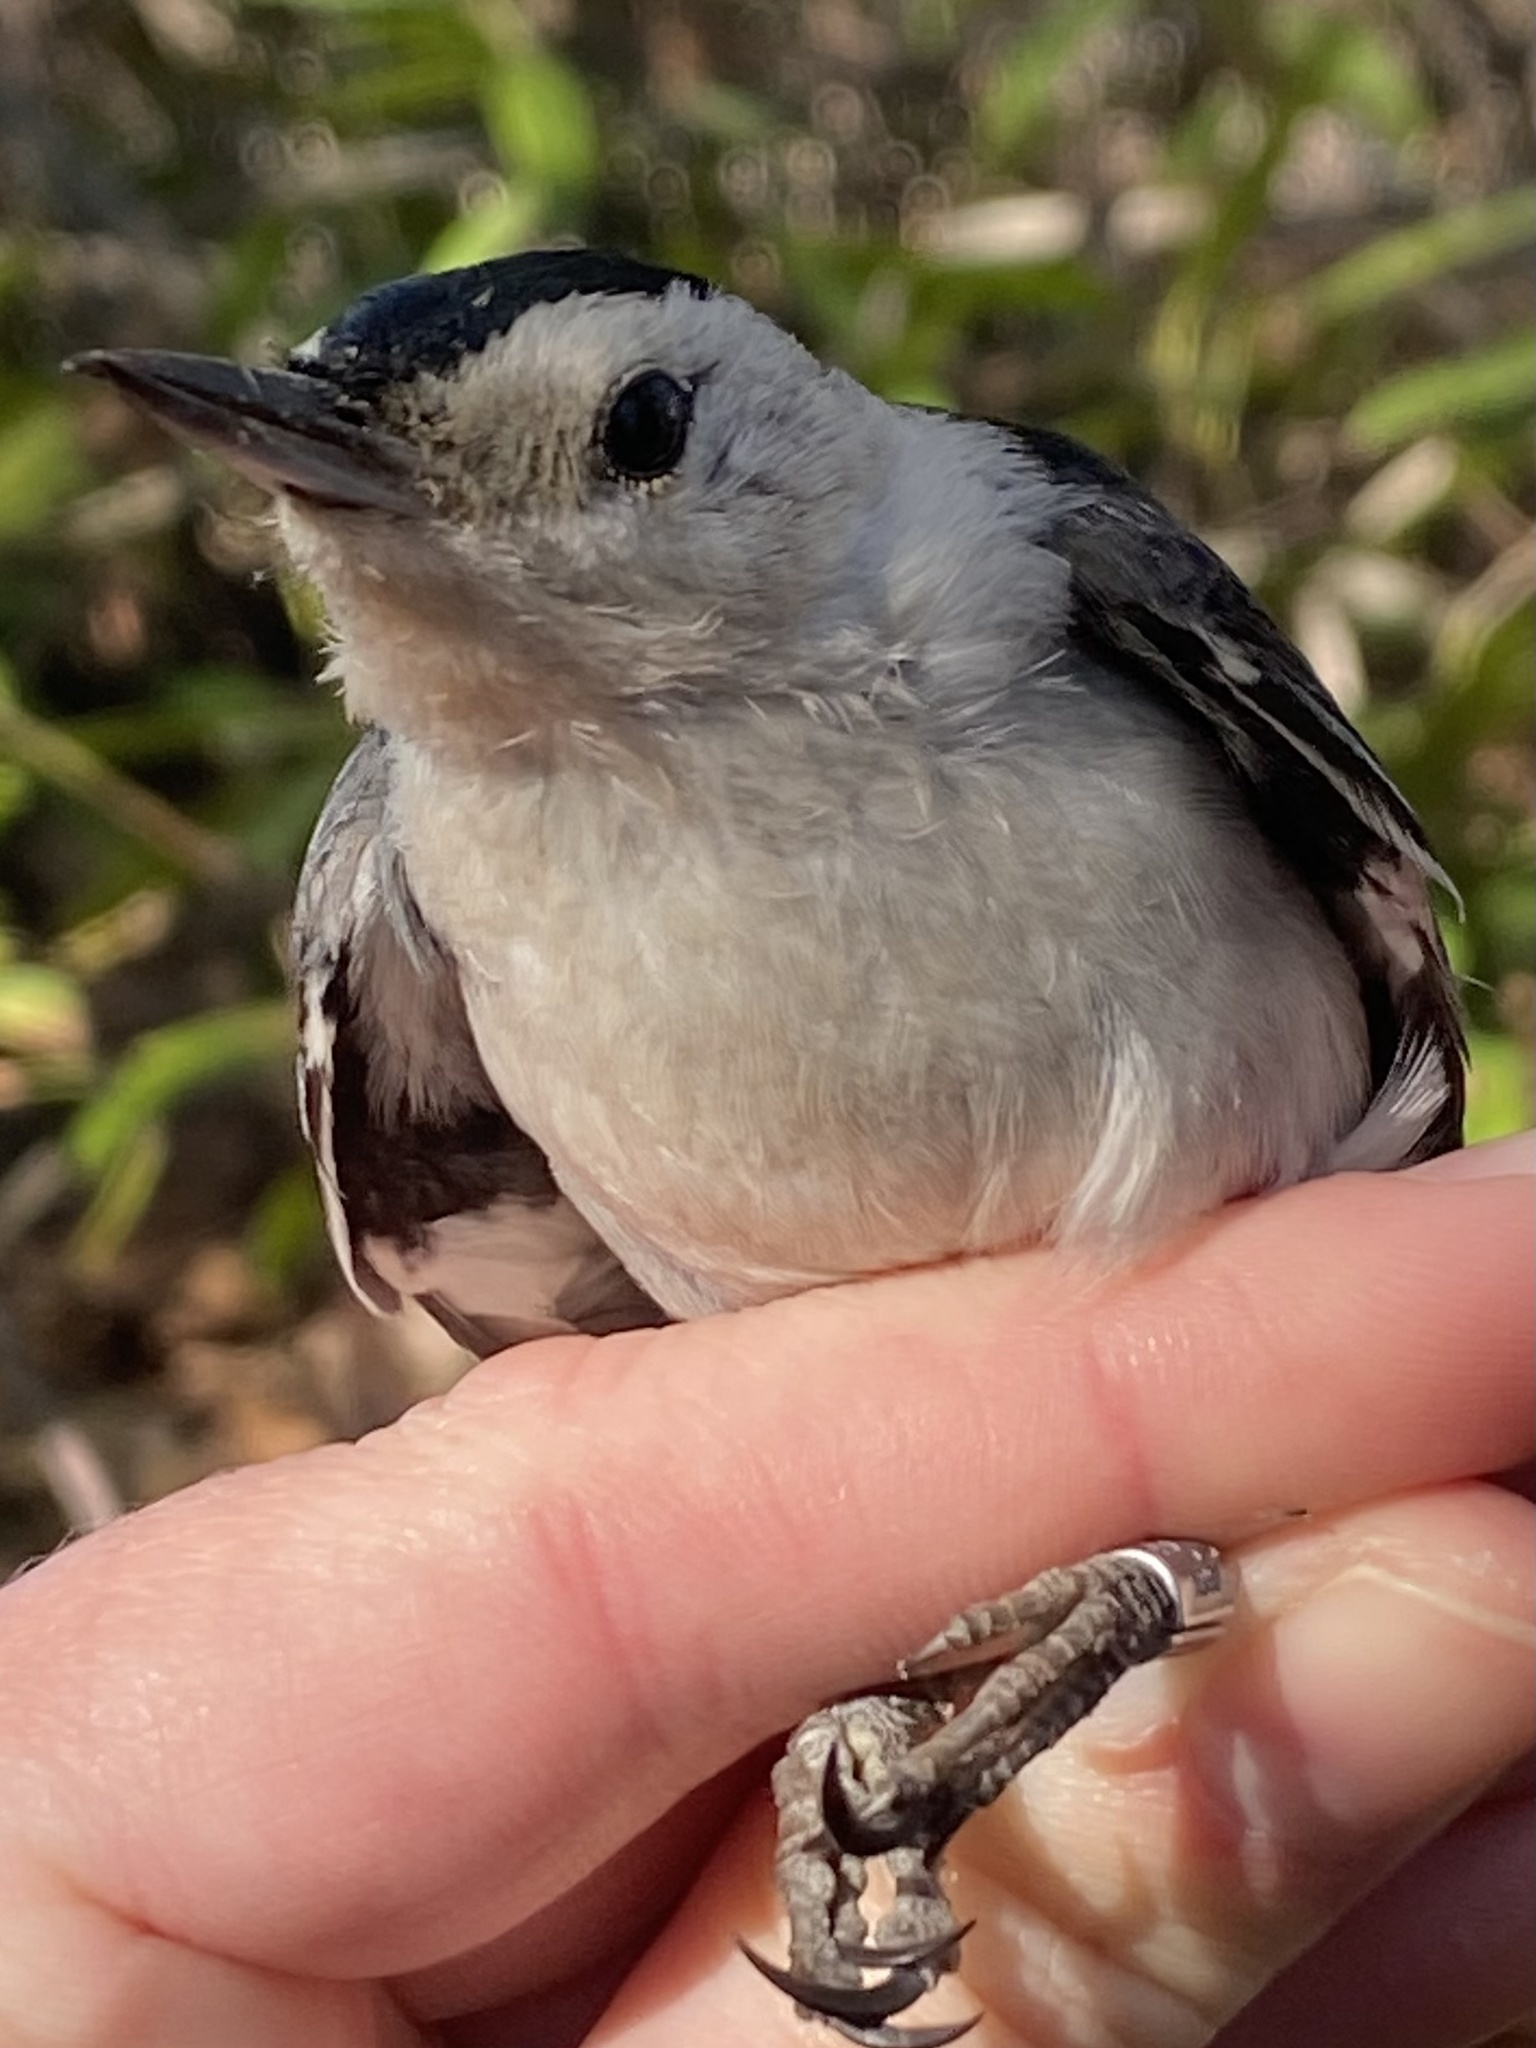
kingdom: Animalia
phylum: Chordata
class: Aves
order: Passeriformes
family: Sittidae
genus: Sitta
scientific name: Sitta carolinensis
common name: White-breasted nuthatch
